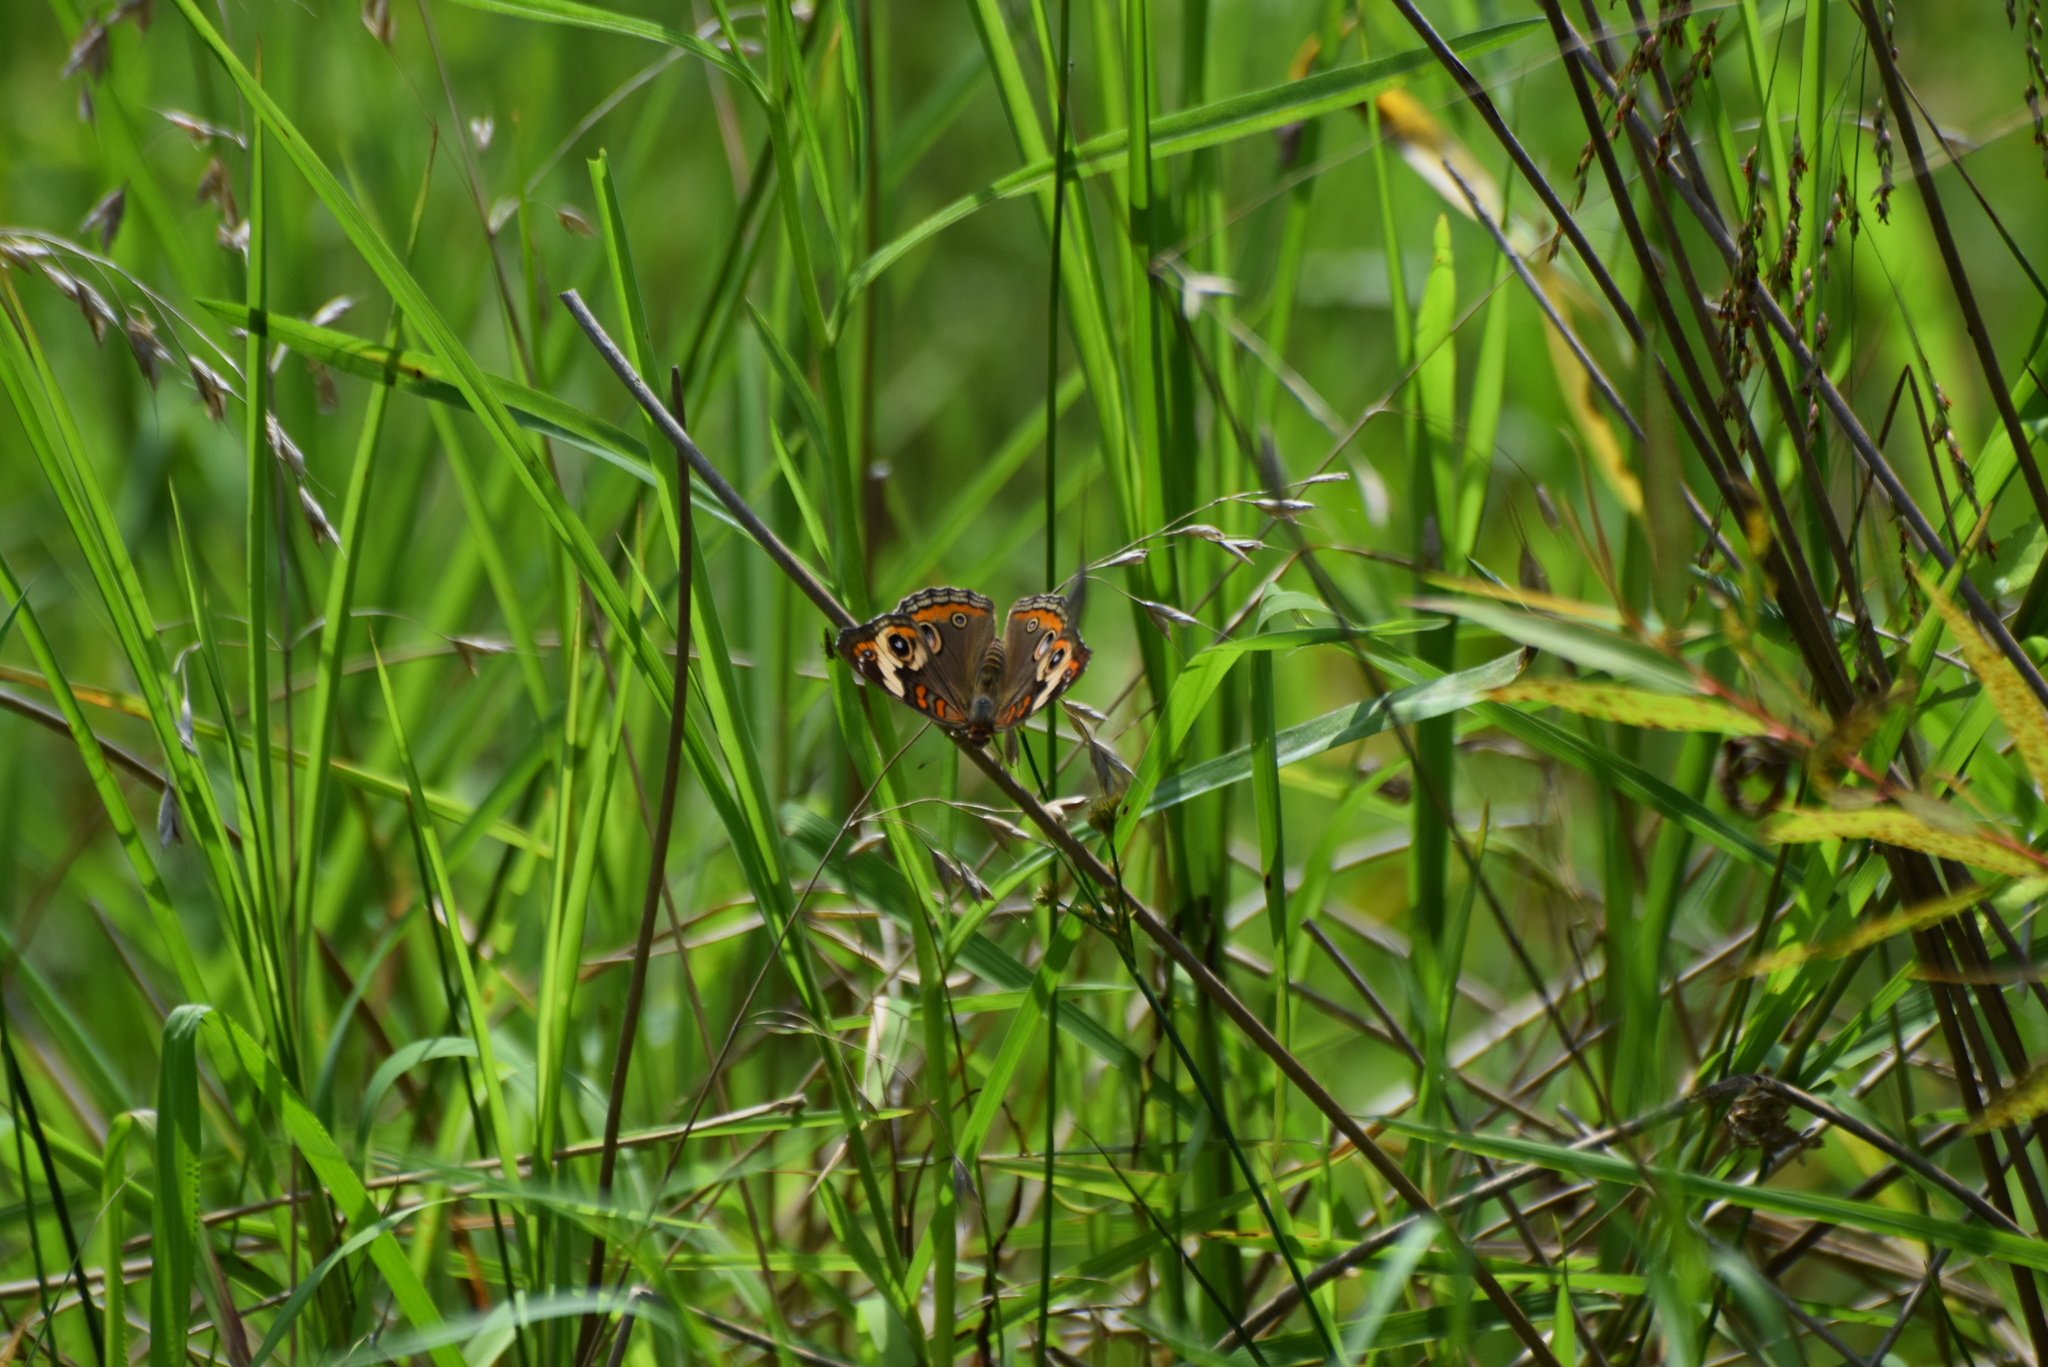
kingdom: Animalia
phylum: Arthropoda
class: Insecta
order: Lepidoptera
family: Nymphalidae
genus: Junonia
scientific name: Junonia coenia
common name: Common buckeye
